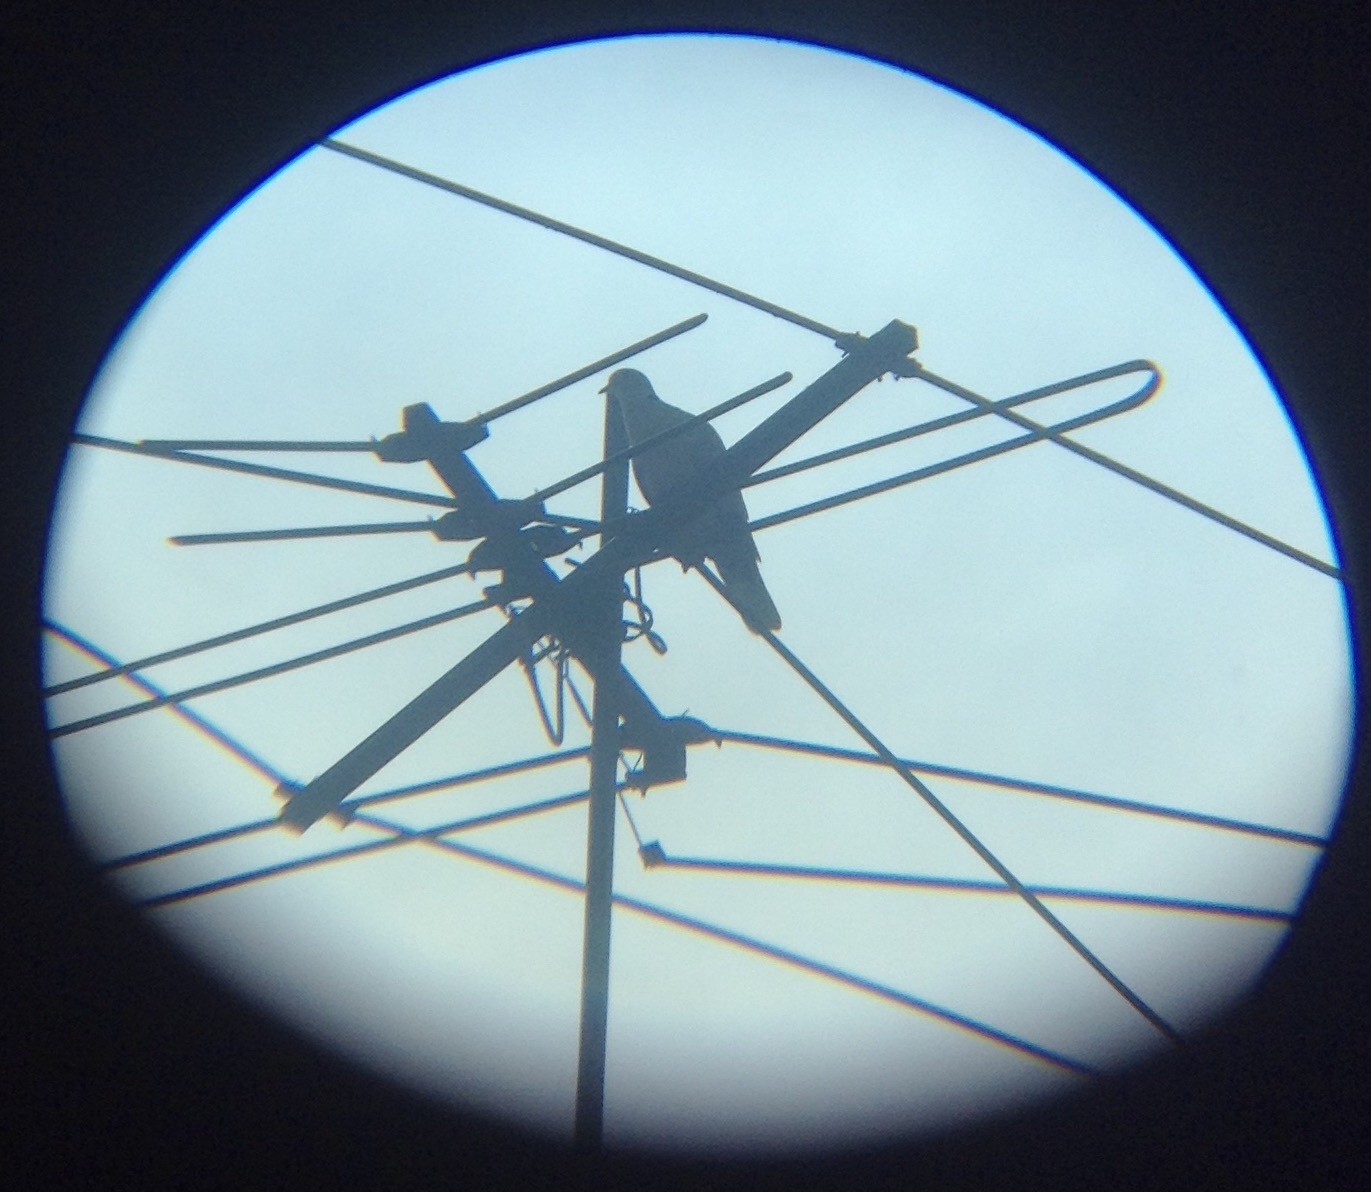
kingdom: Animalia
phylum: Chordata
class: Aves
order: Columbiformes
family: Columbidae
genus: Streptopelia
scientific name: Streptopelia decaocto
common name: Eurasian collared dove
